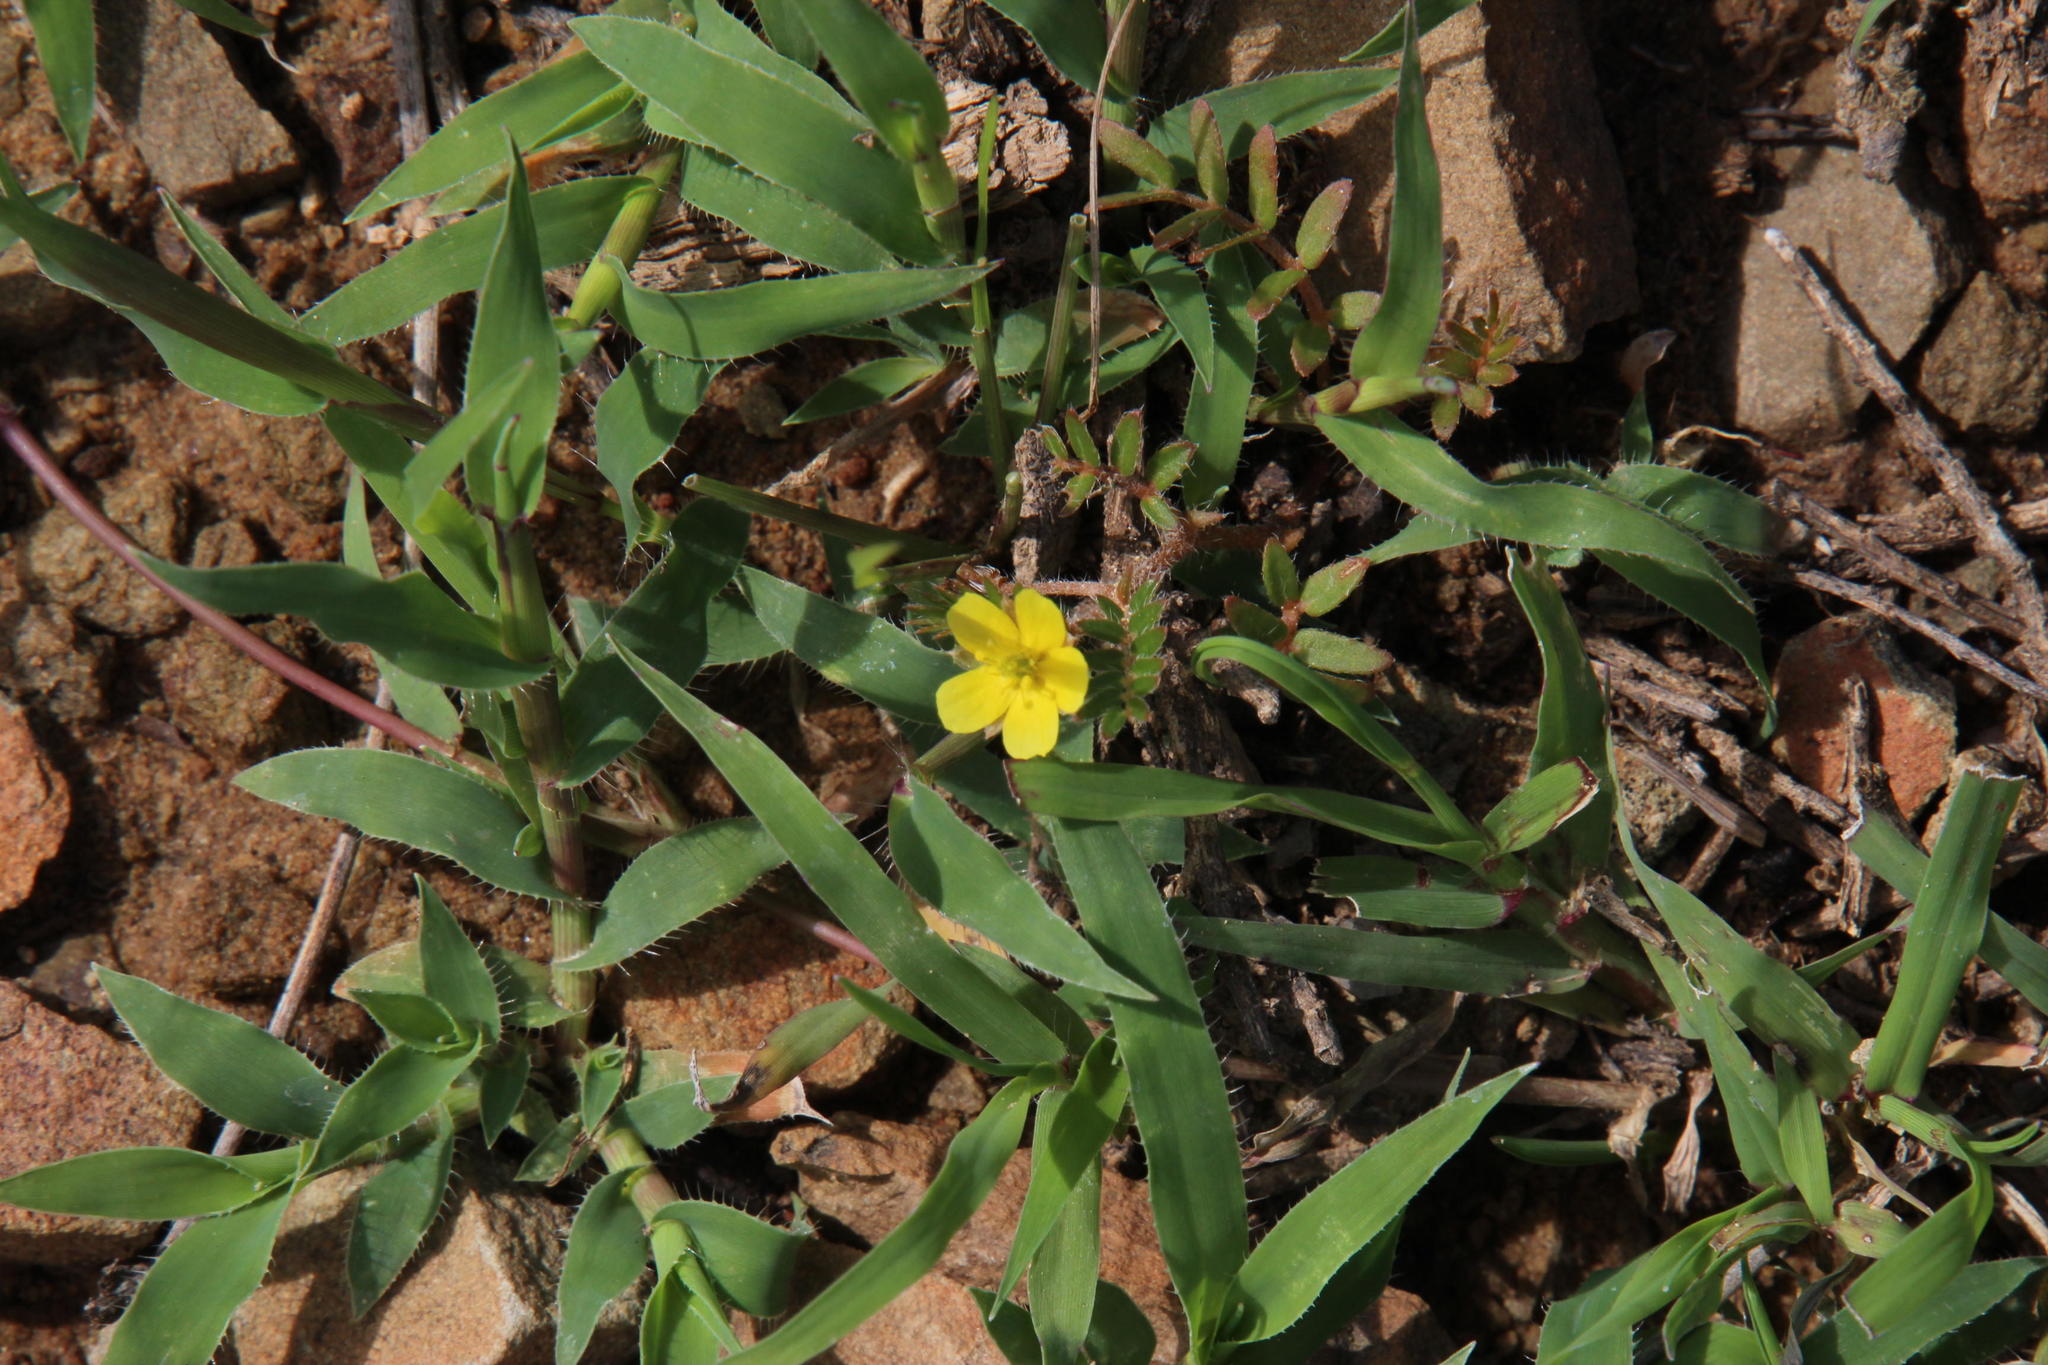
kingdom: Plantae
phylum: Tracheophyta
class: Magnoliopsida
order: Zygophyllales
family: Zygophyllaceae
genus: Tribulus
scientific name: Tribulus terrestris
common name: Puncturevine
